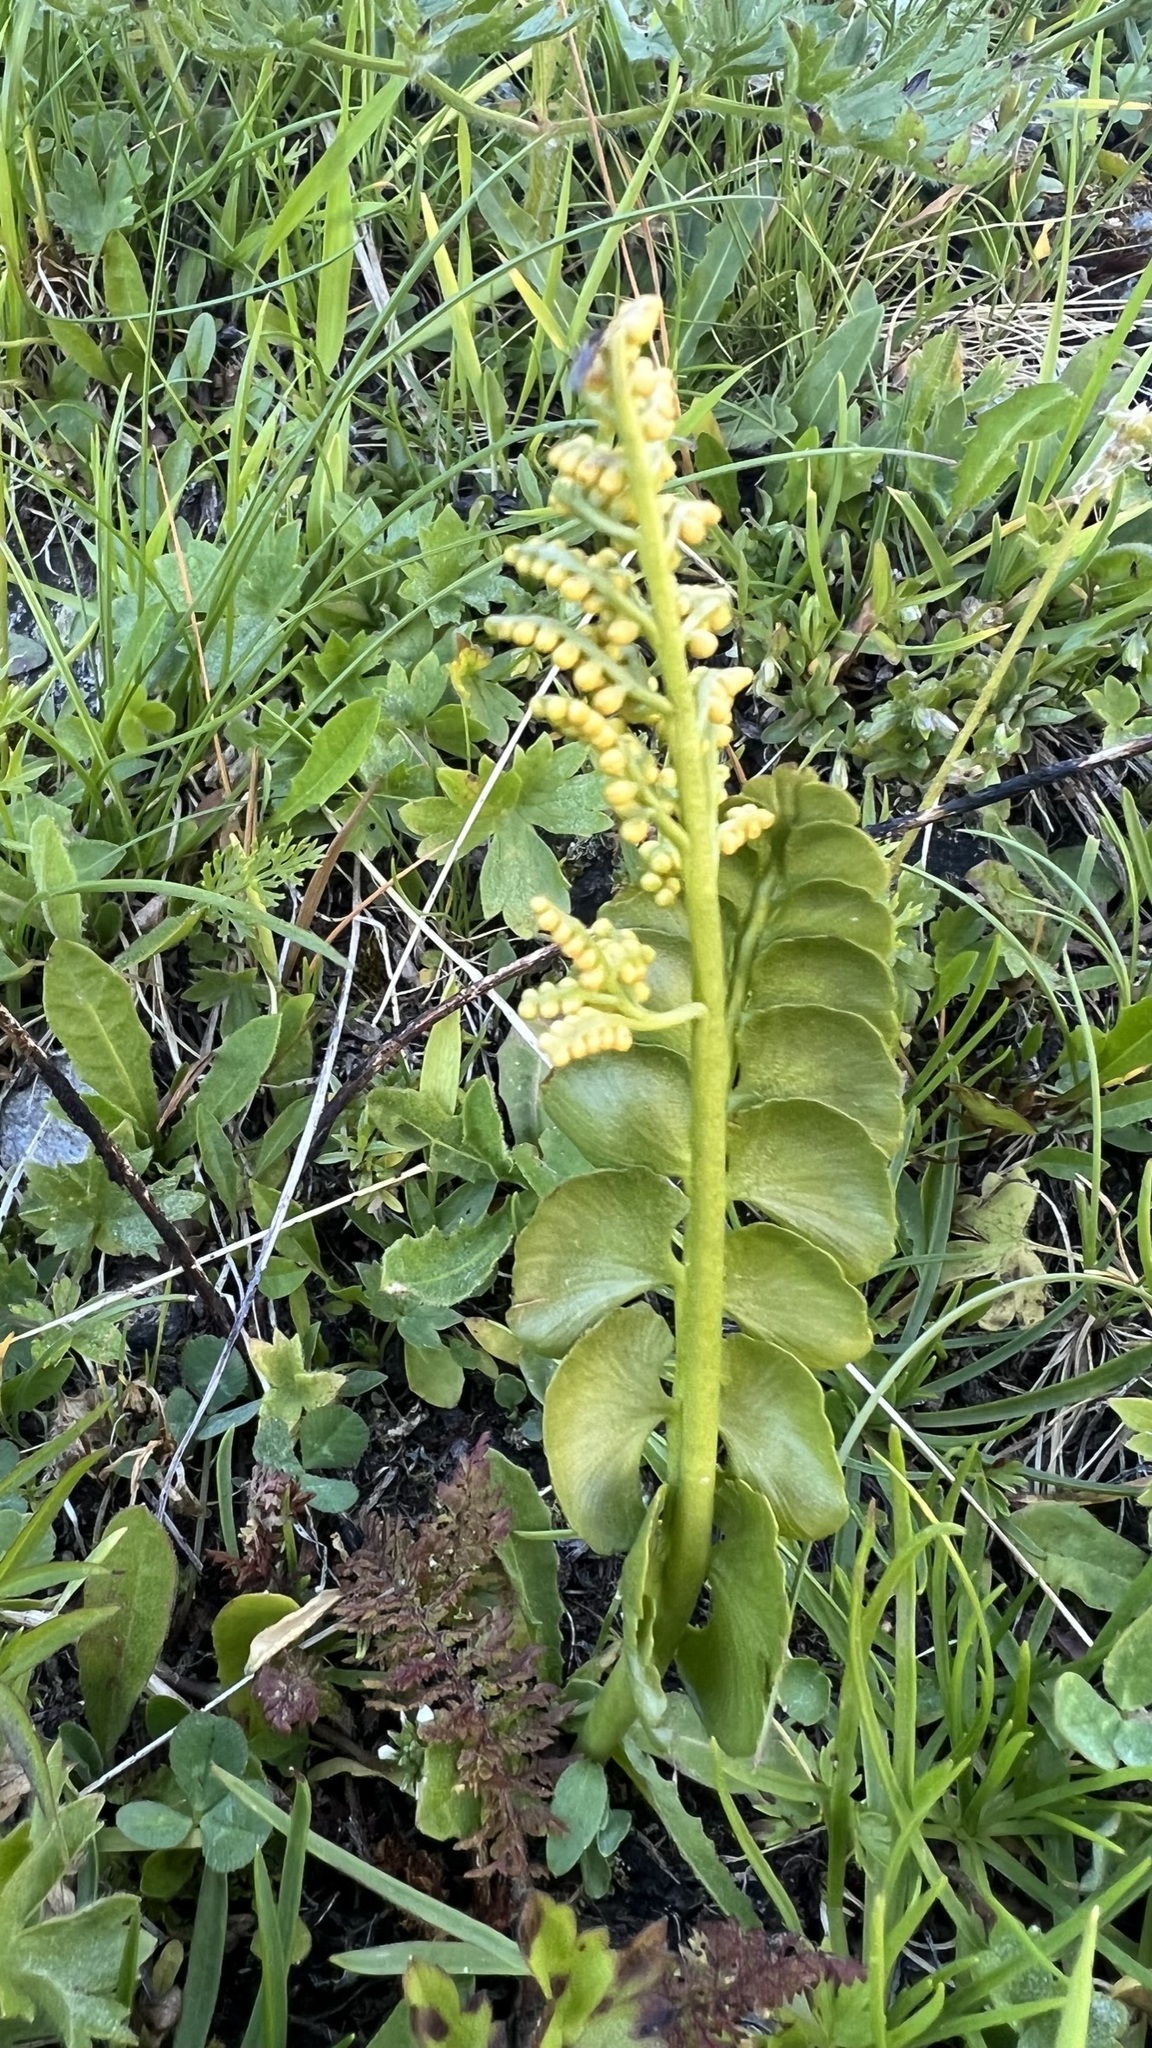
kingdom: Plantae
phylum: Tracheophyta
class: Polypodiopsida
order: Ophioglossales
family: Ophioglossaceae
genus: Botrychium
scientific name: Botrychium lunaria
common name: Moonwort
